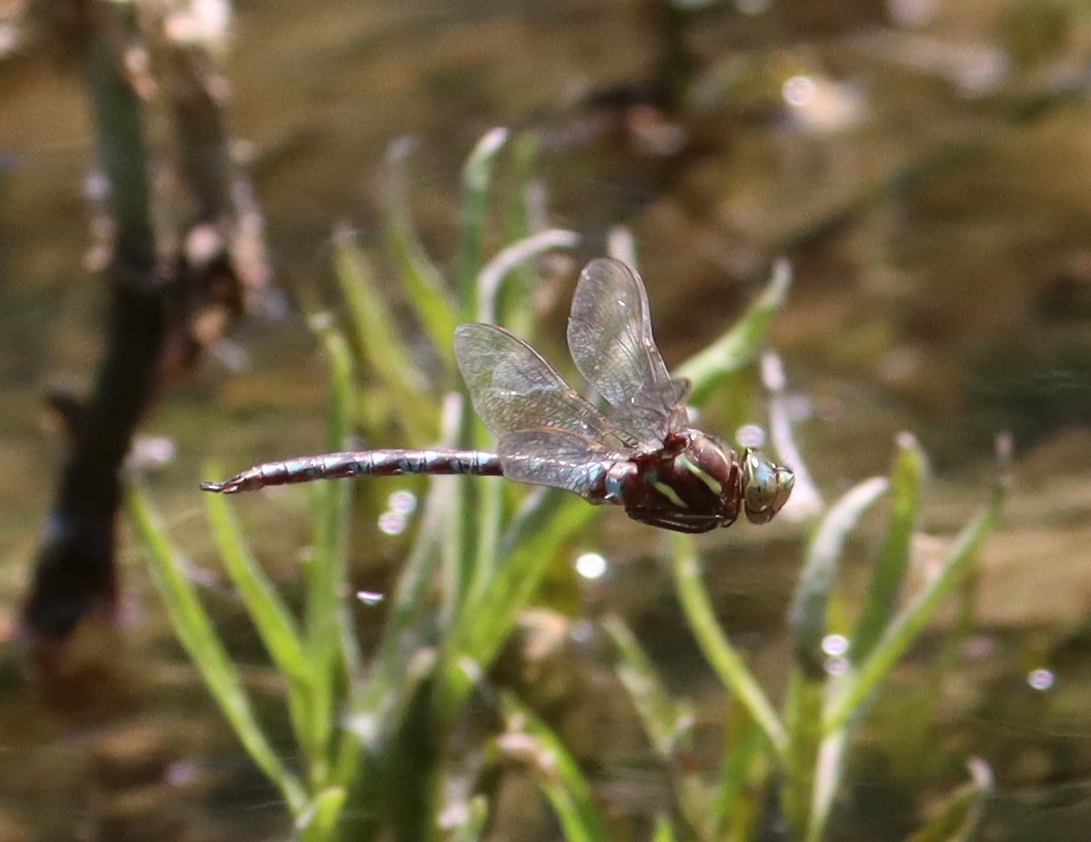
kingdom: Animalia
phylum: Arthropoda
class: Insecta
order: Odonata
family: Aeshnidae
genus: Basiaeschna
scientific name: Basiaeschna janata
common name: Springtime darner
